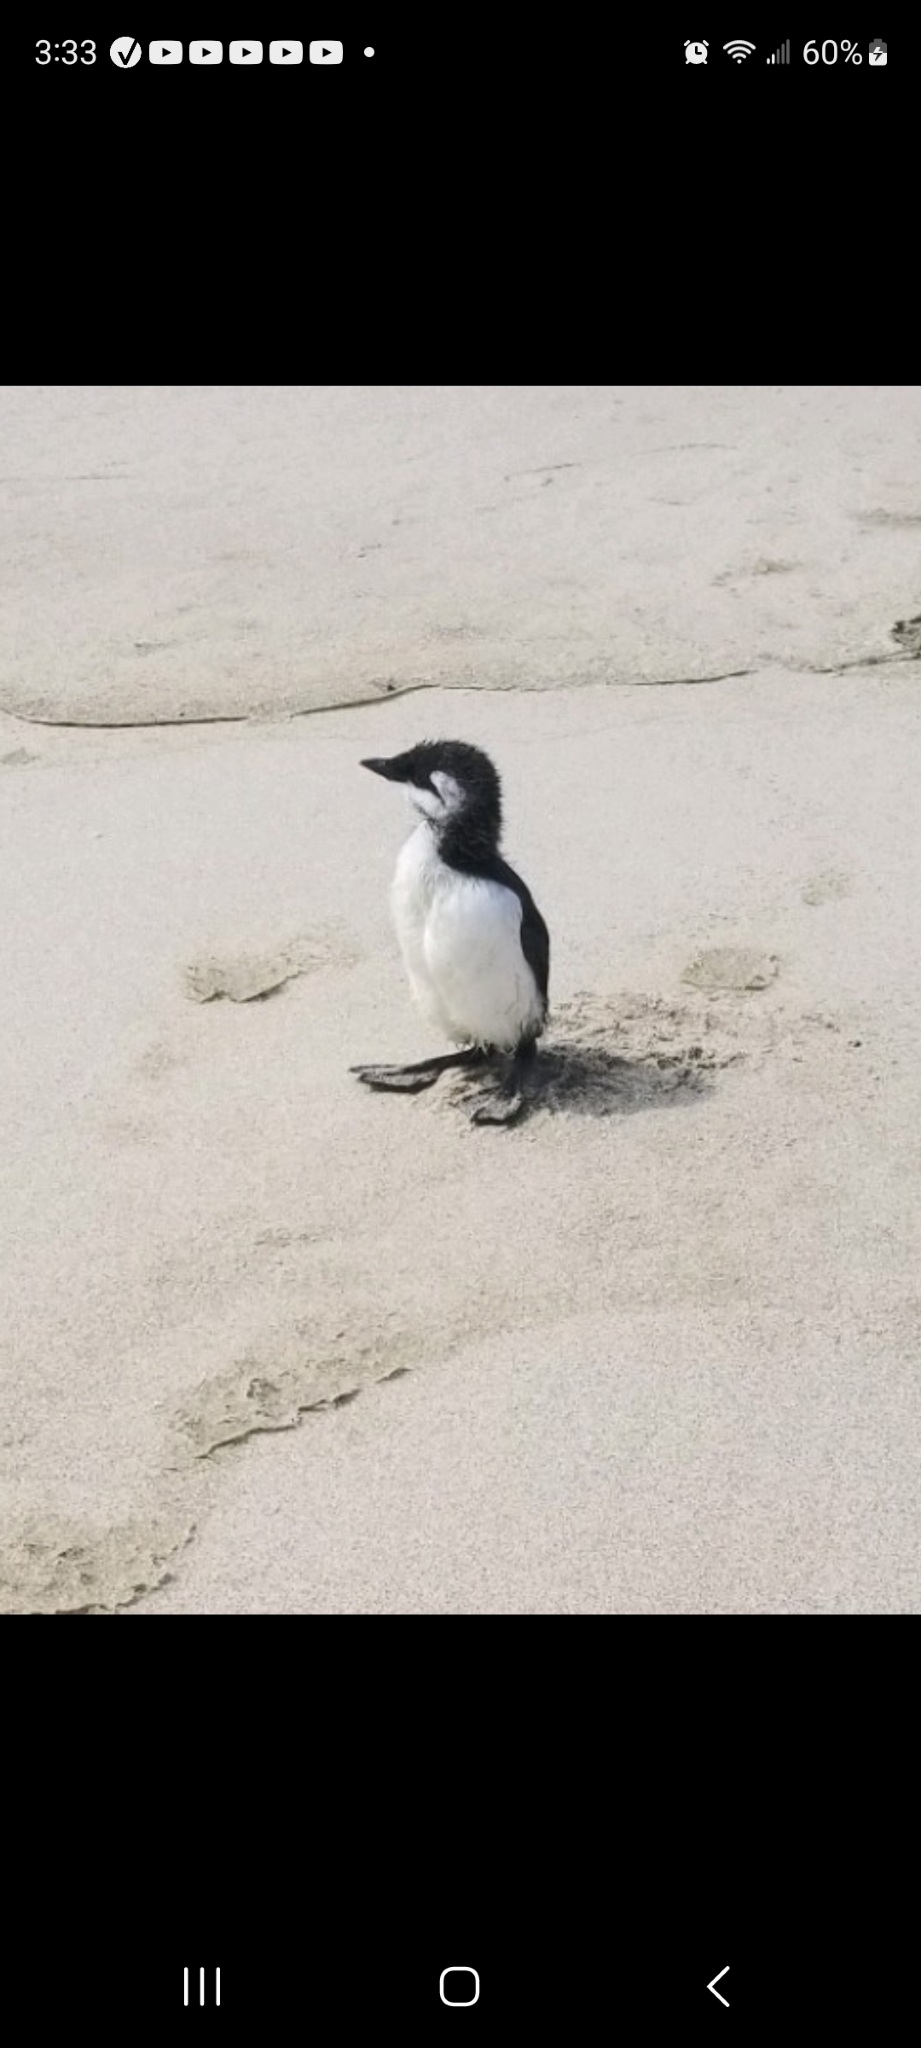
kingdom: Animalia
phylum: Chordata
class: Aves
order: Charadriiformes
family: Alcidae
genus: Uria
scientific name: Uria aalge
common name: Common murre
